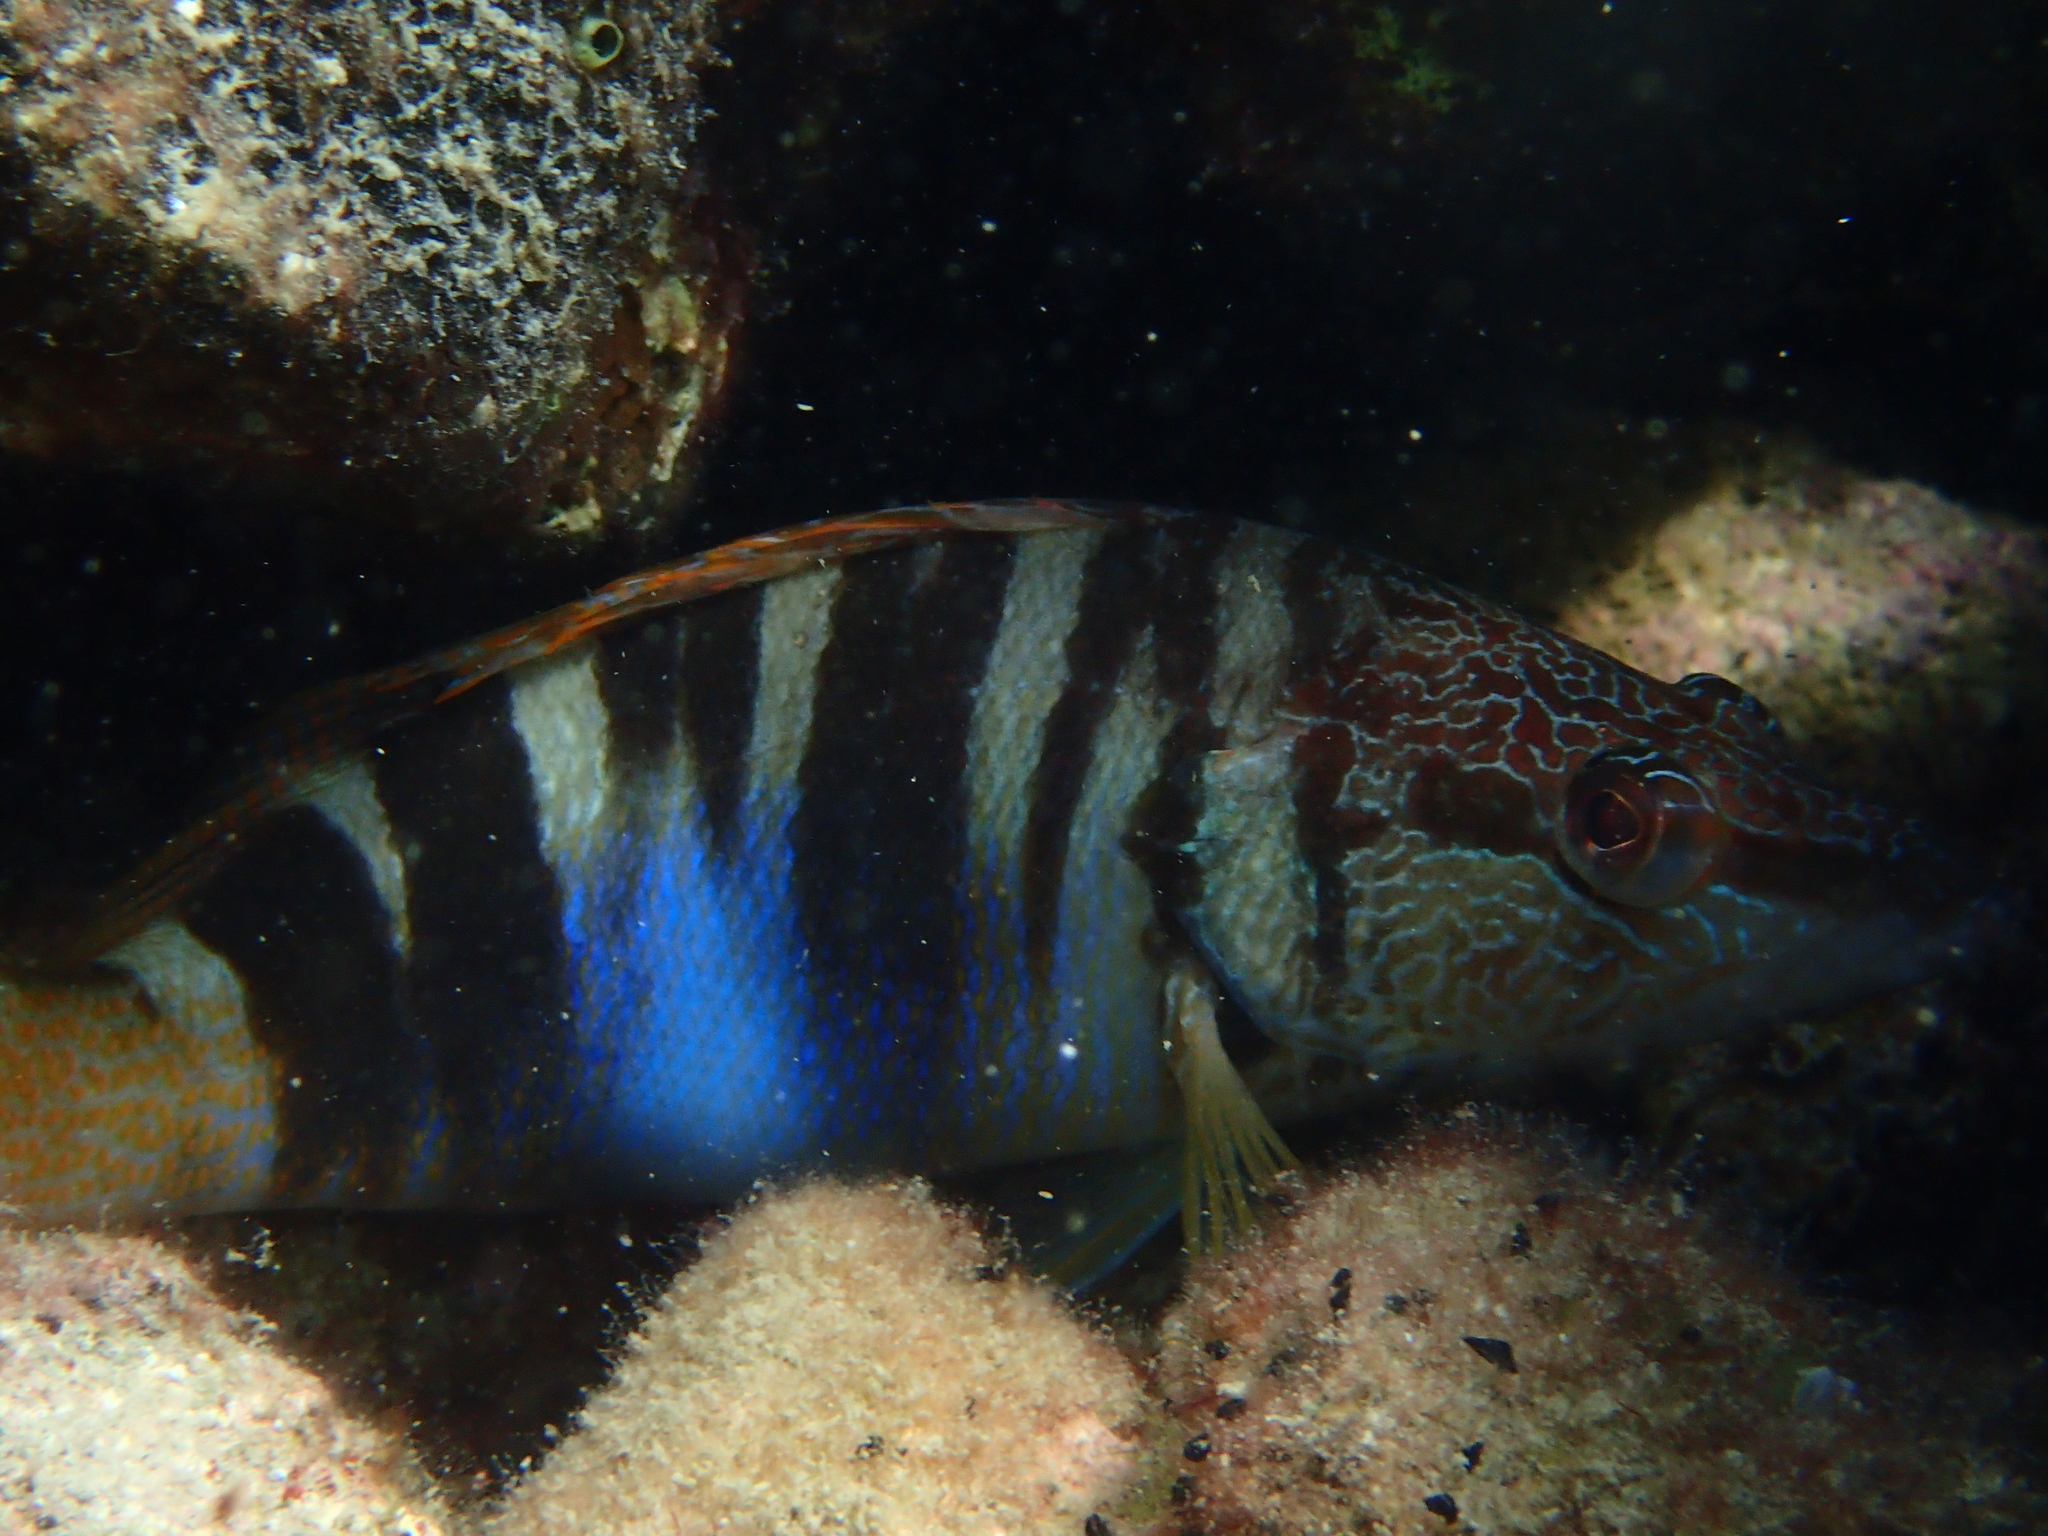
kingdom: Animalia
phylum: Chordata
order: Perciformes
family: Serranidae
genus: Serranus
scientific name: Serranus scriba
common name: Painted comber
